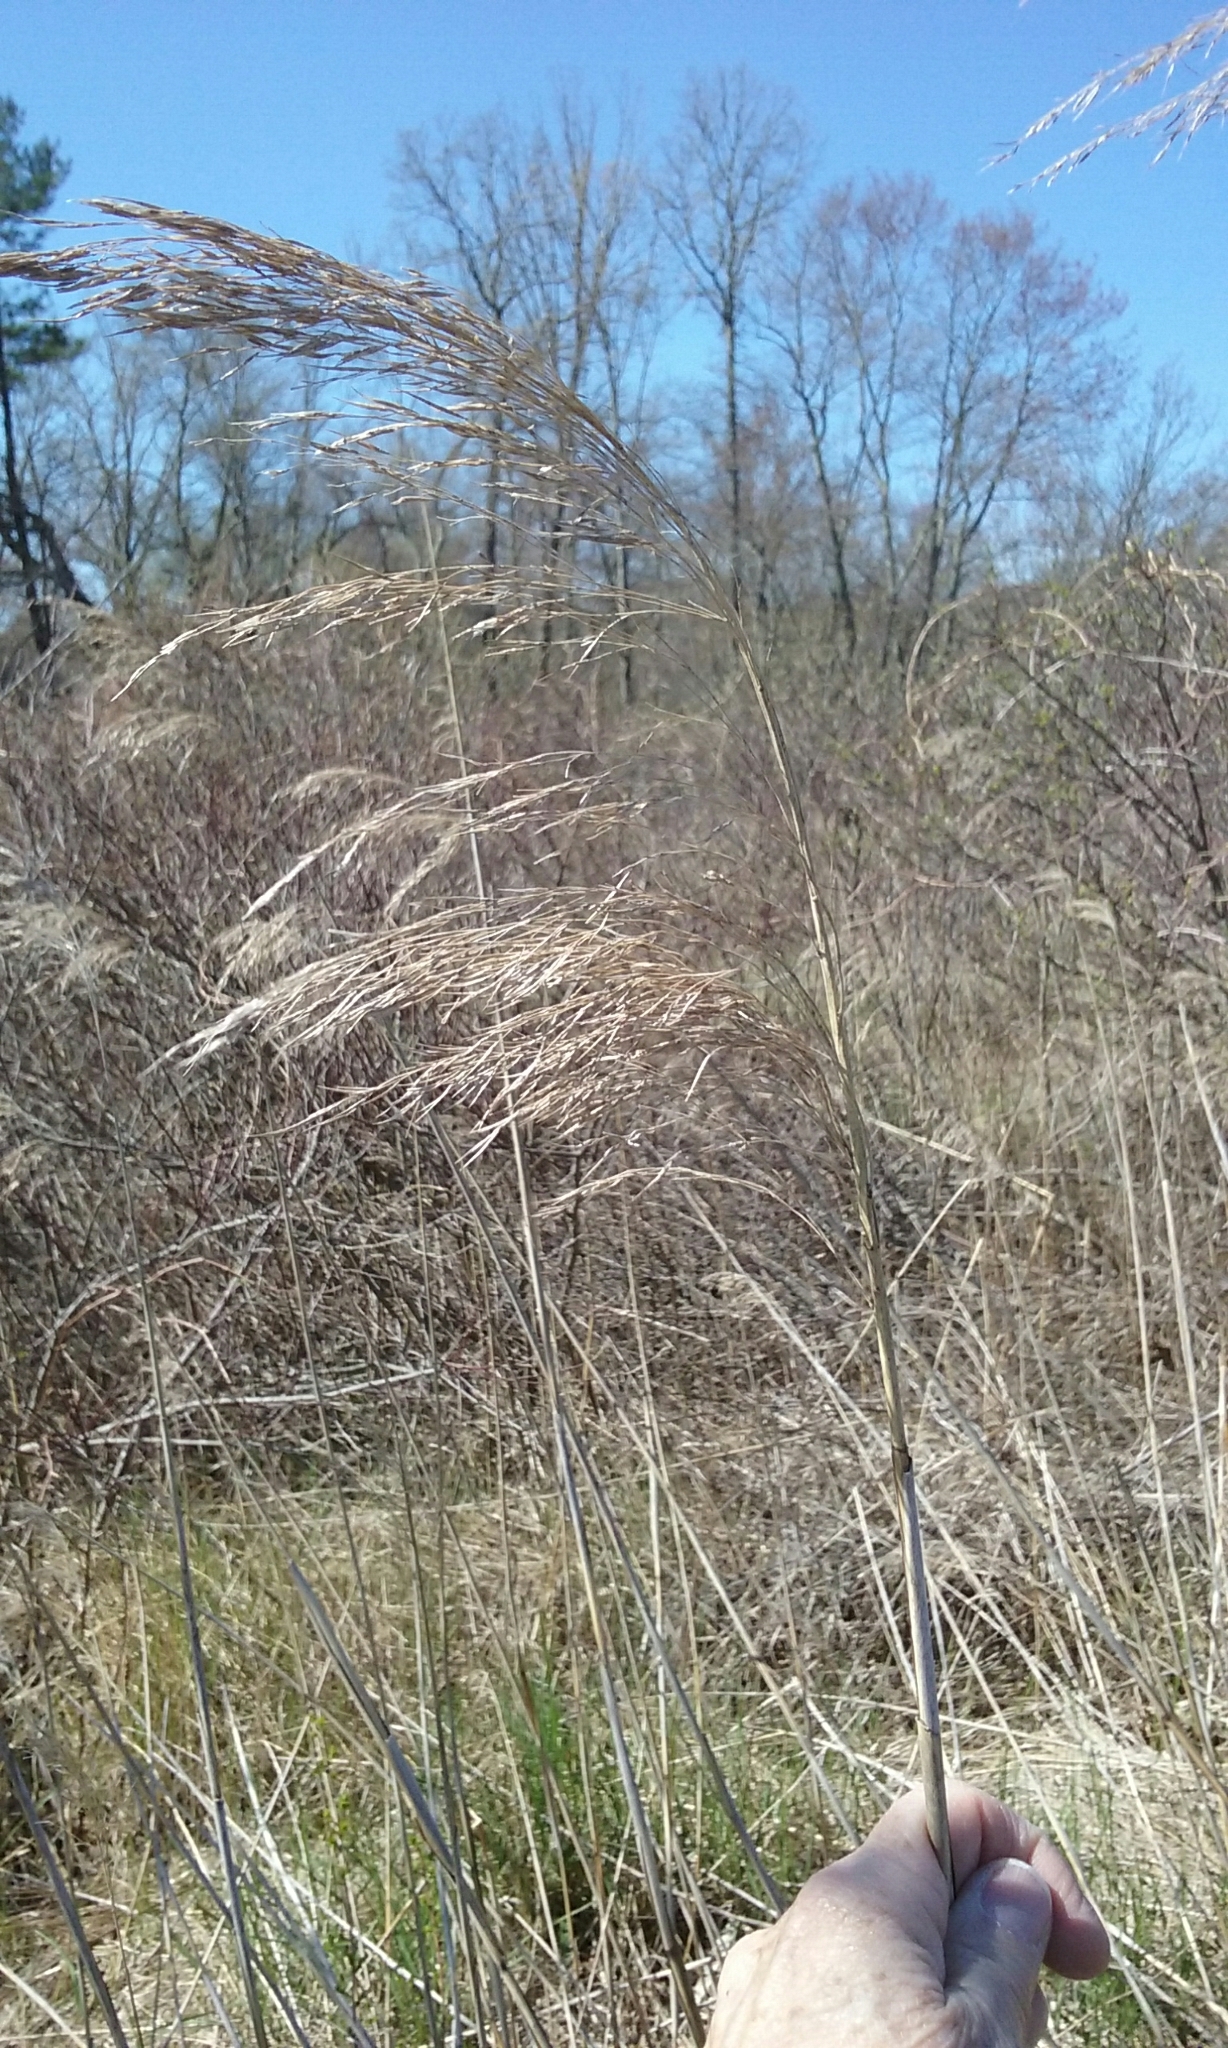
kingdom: Plantae
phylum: Tracheophyta
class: Liliopsida
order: Poales
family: Poaceae
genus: Phragmites
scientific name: Phragmites australis
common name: Common reed
